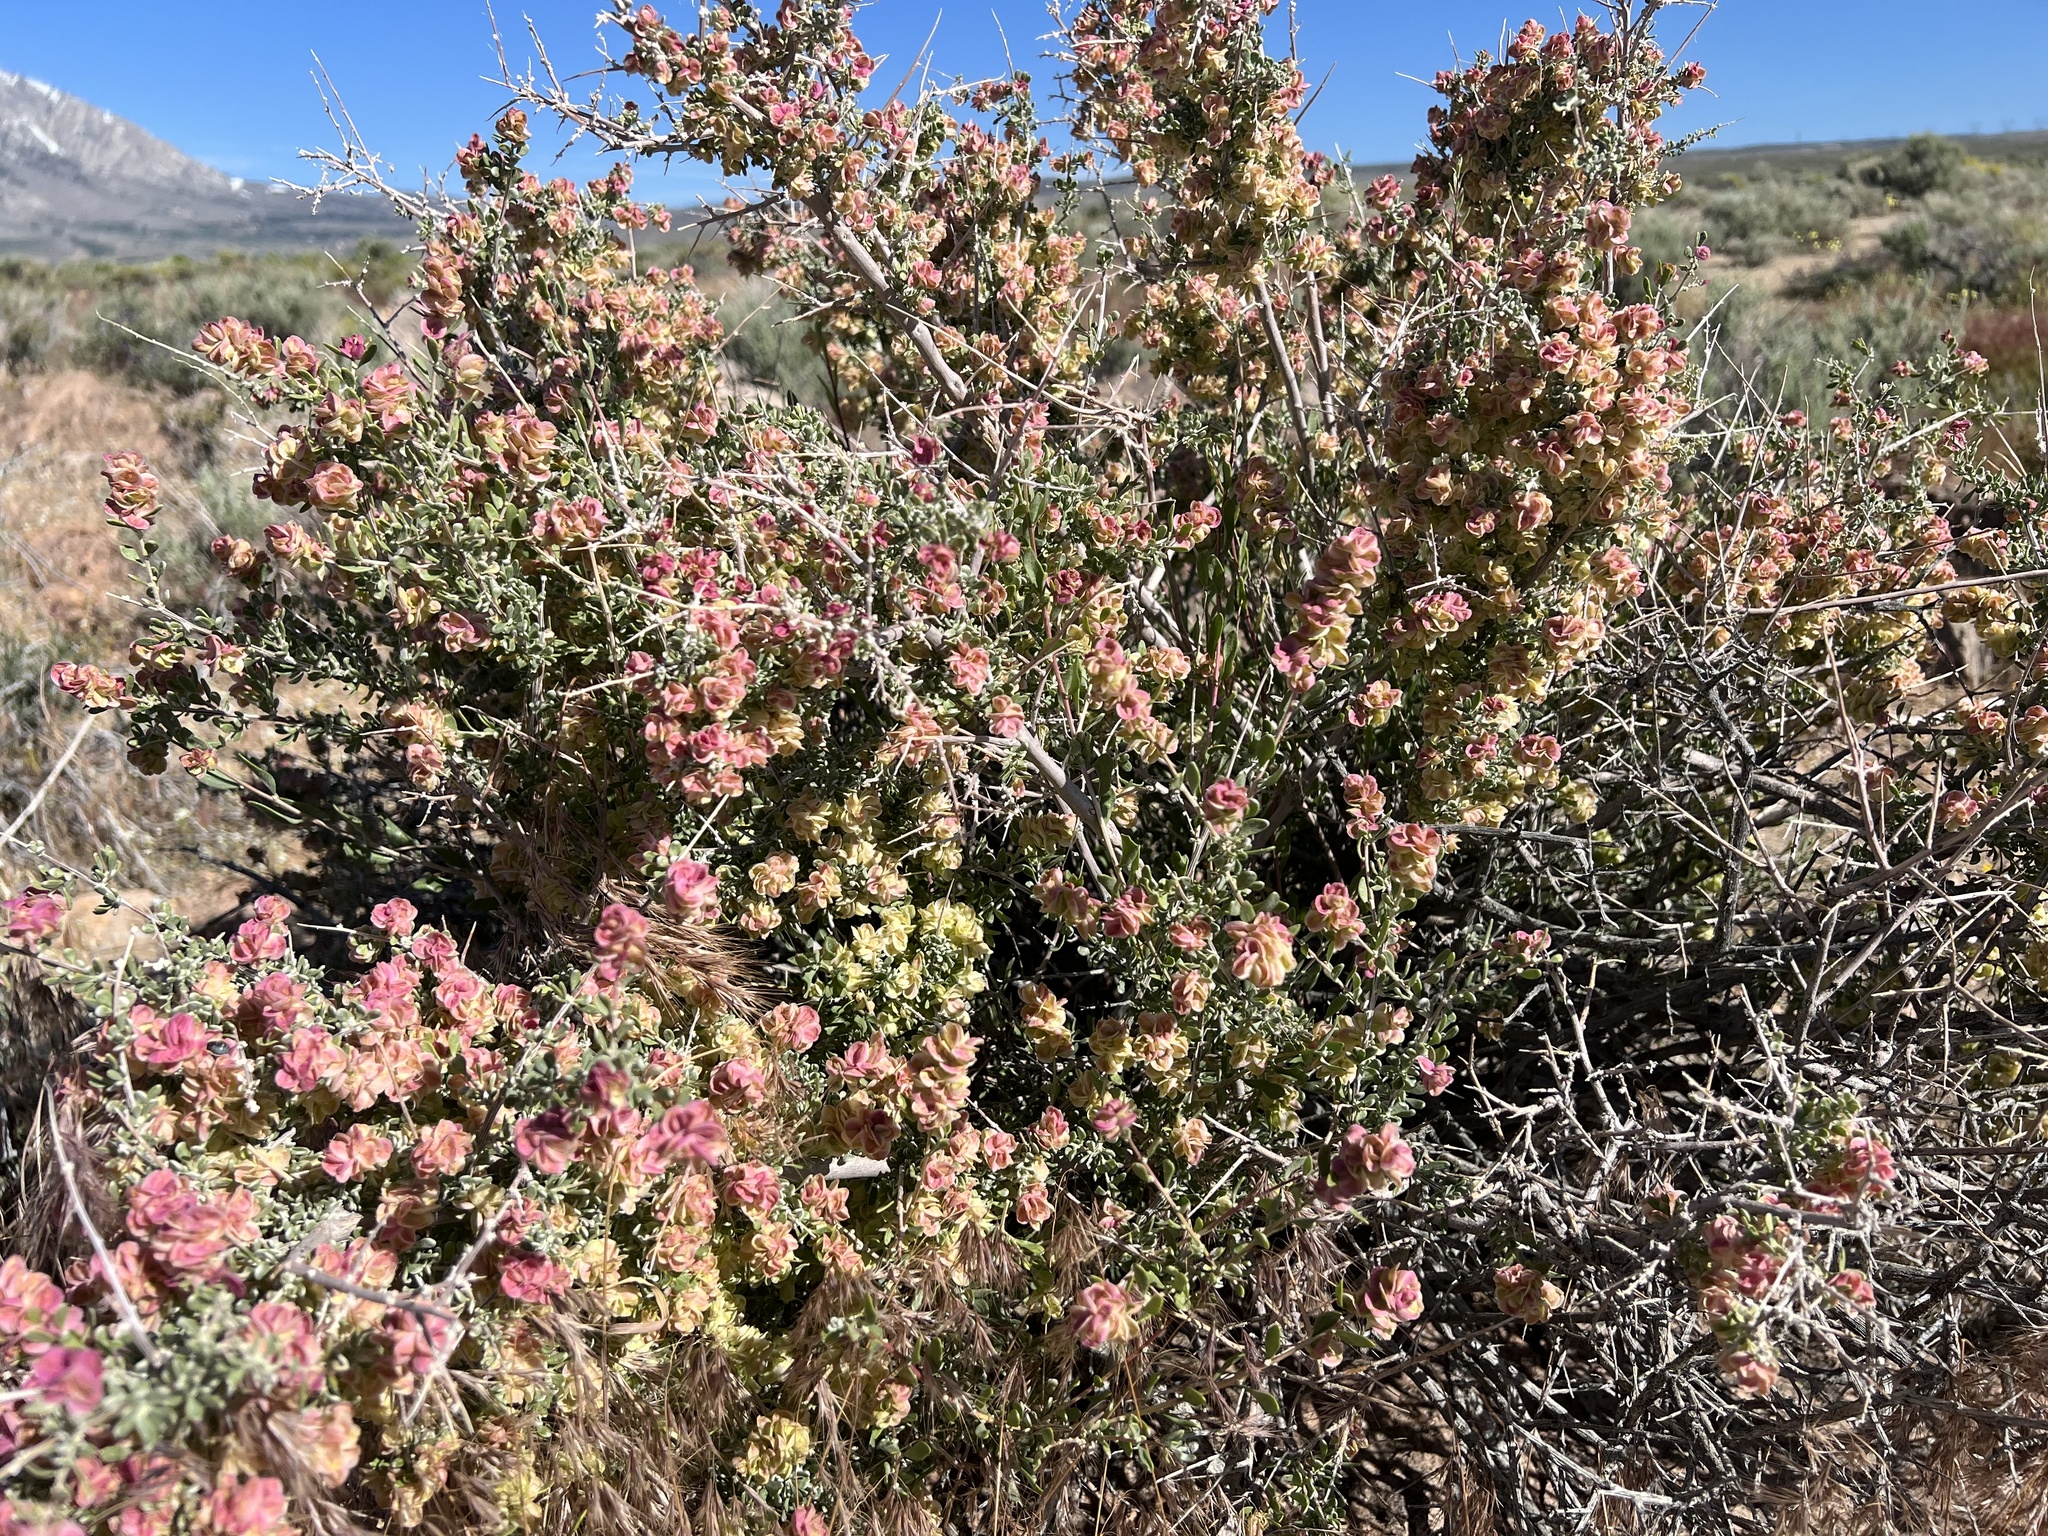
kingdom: Plantae
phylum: Tracheophyta
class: Magnoliopsida
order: Caryophyllales
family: Amaranthaceae
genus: Grayia
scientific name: Grayia spinosa
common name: Spiny hopsage
